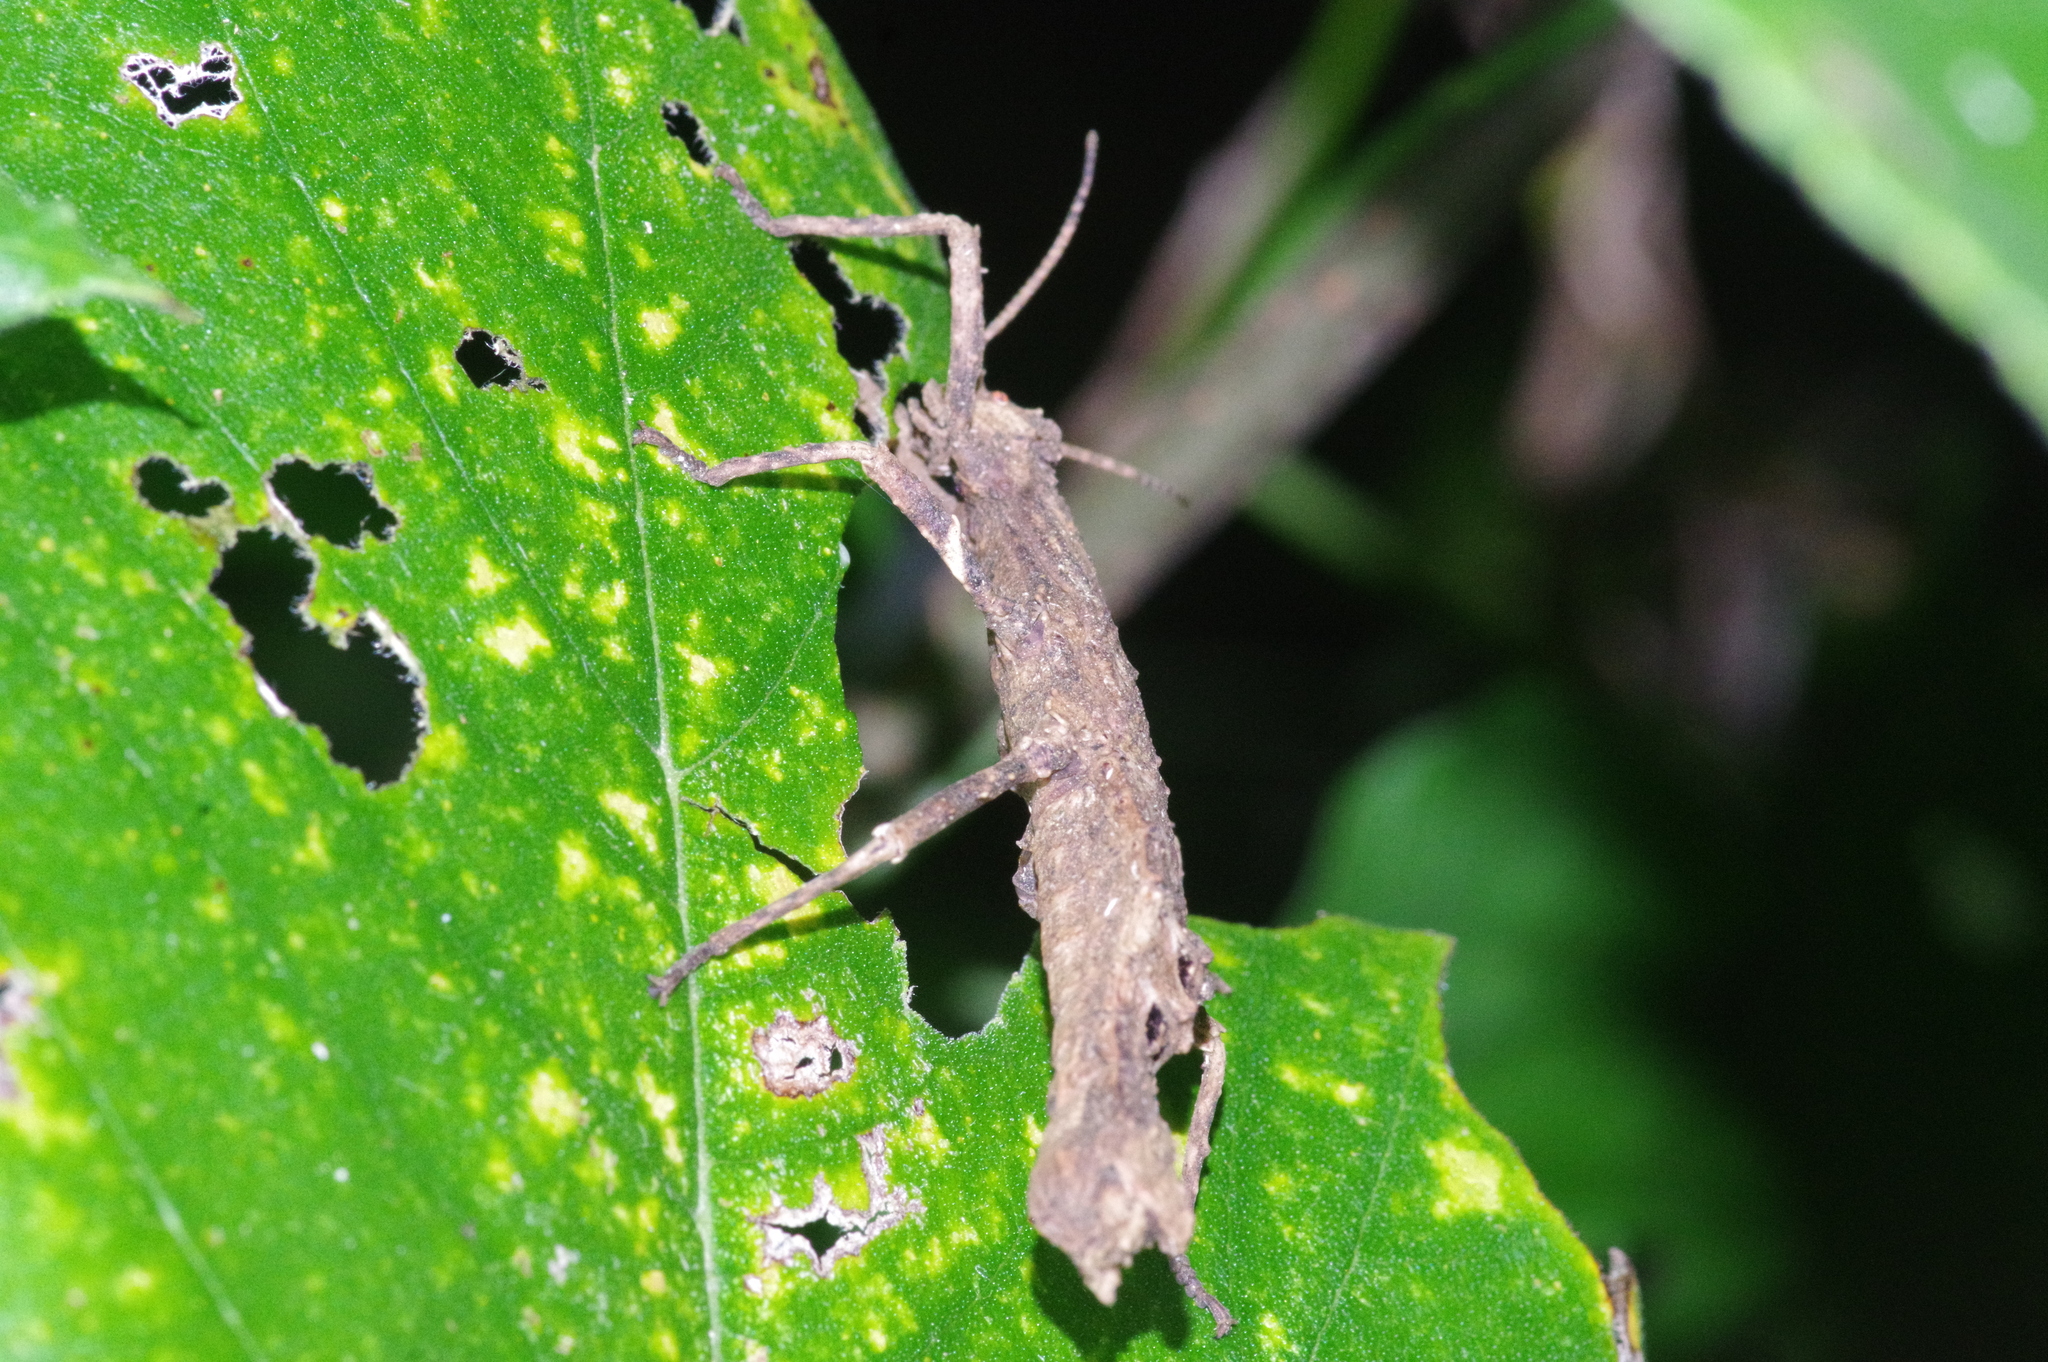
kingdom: Animalia
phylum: Arthropoda
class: Insecta
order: Phasmida
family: Heteropterygidae
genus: Orestes
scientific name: Orestes japonicus
